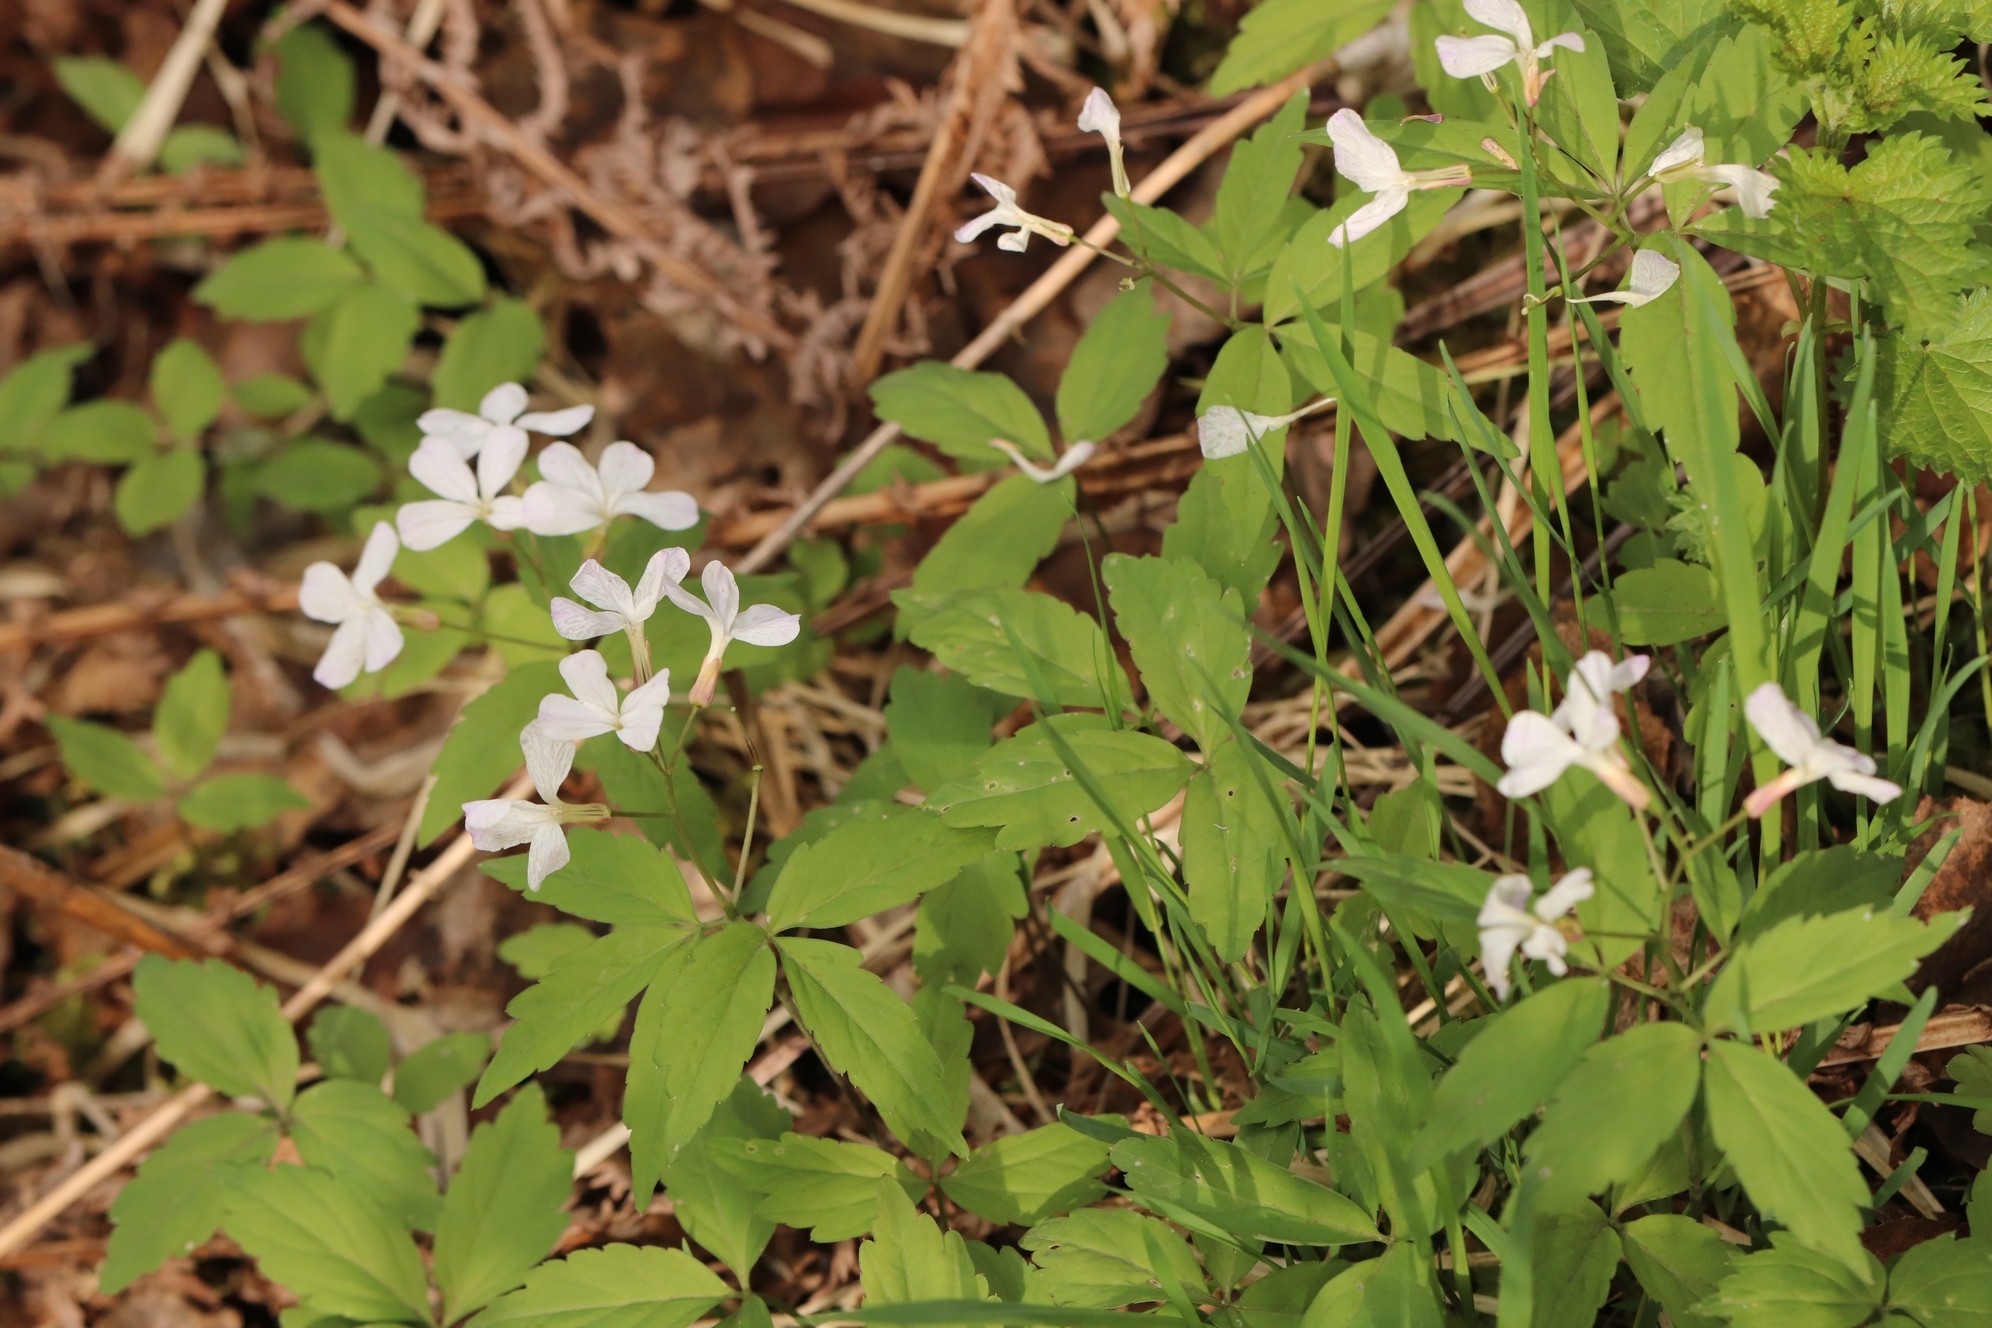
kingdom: Plantae
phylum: Tracheophyta
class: Magnoliopsida
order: Brassicales
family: Brassicaceae
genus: Cardamine
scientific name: Cardamine altaica
